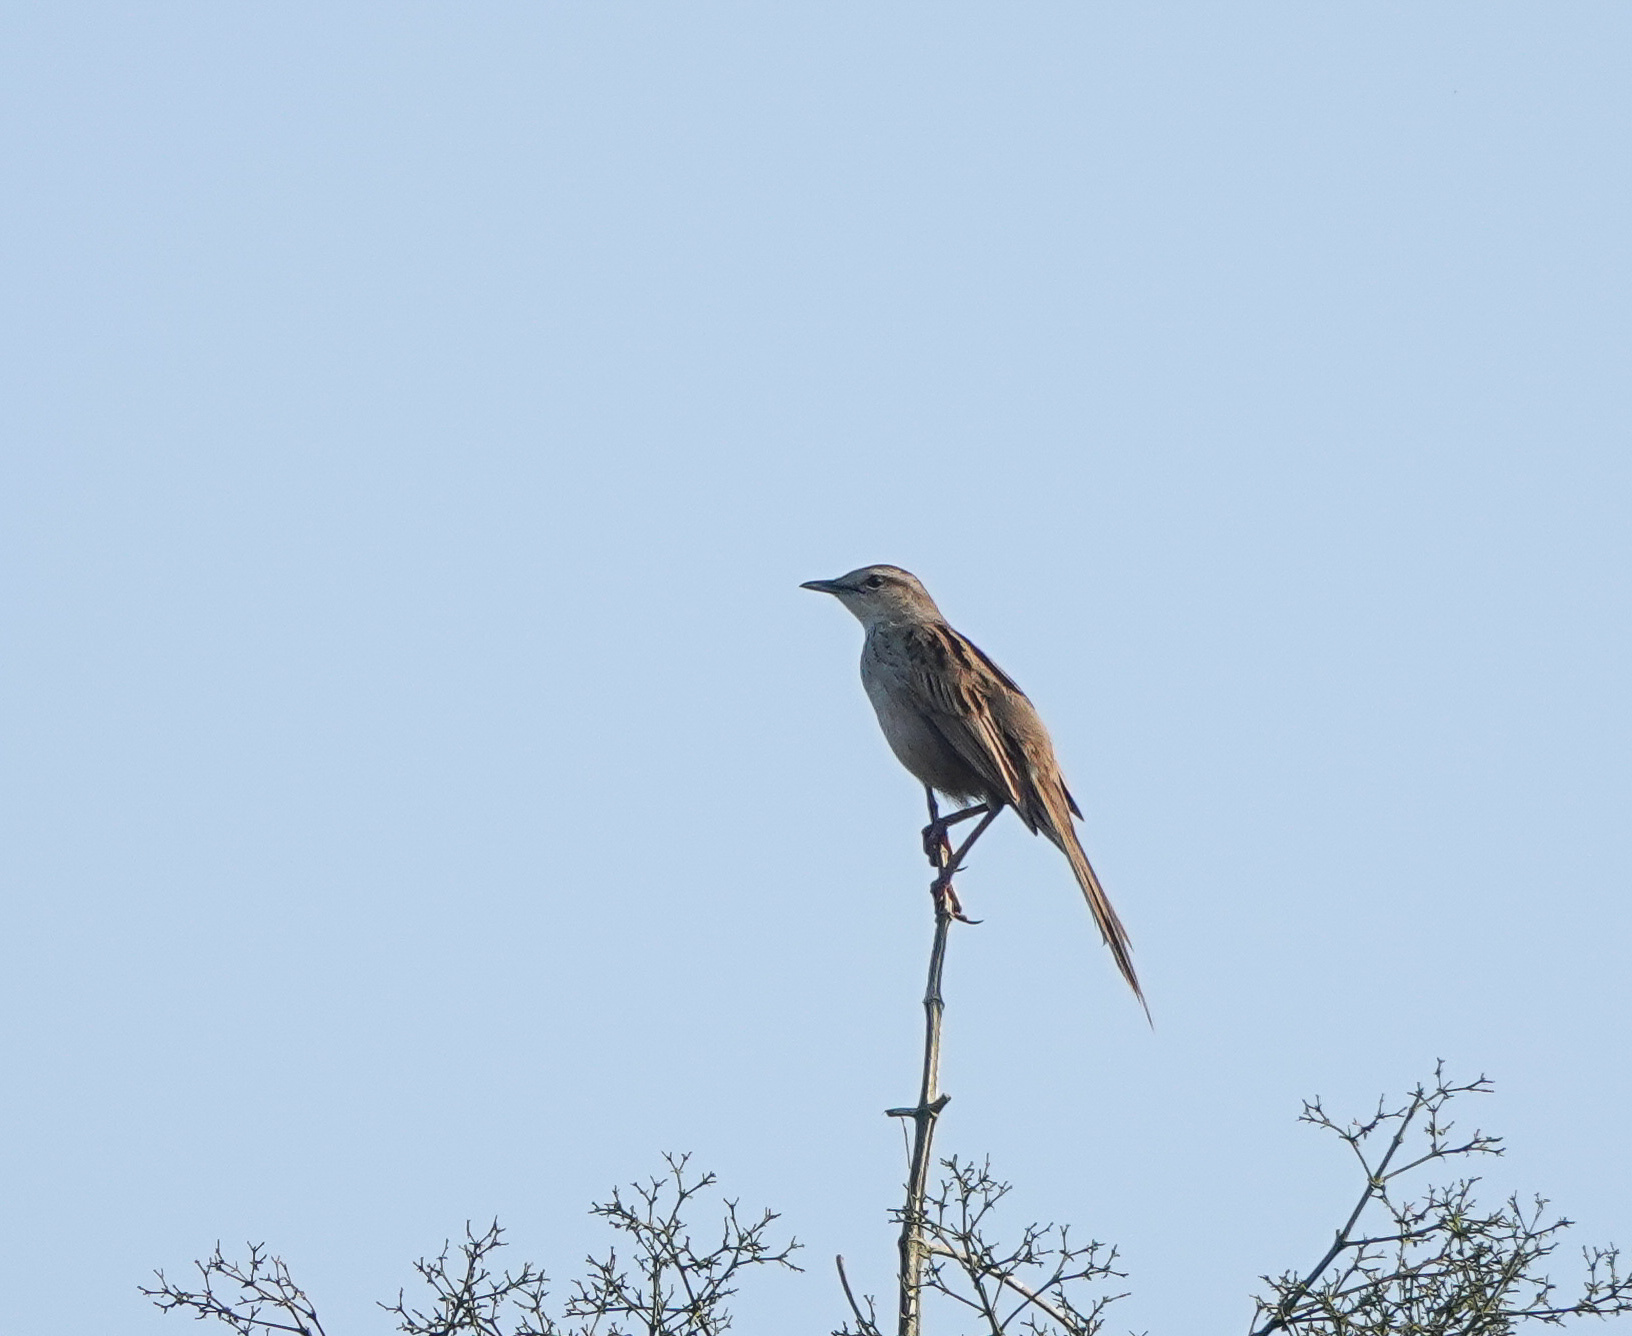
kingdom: Animalia
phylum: Chordata
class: Aves
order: Passeriformes
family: Locustellidae
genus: Megalurus
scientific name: Megalurus palustris
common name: Striated grassbird
